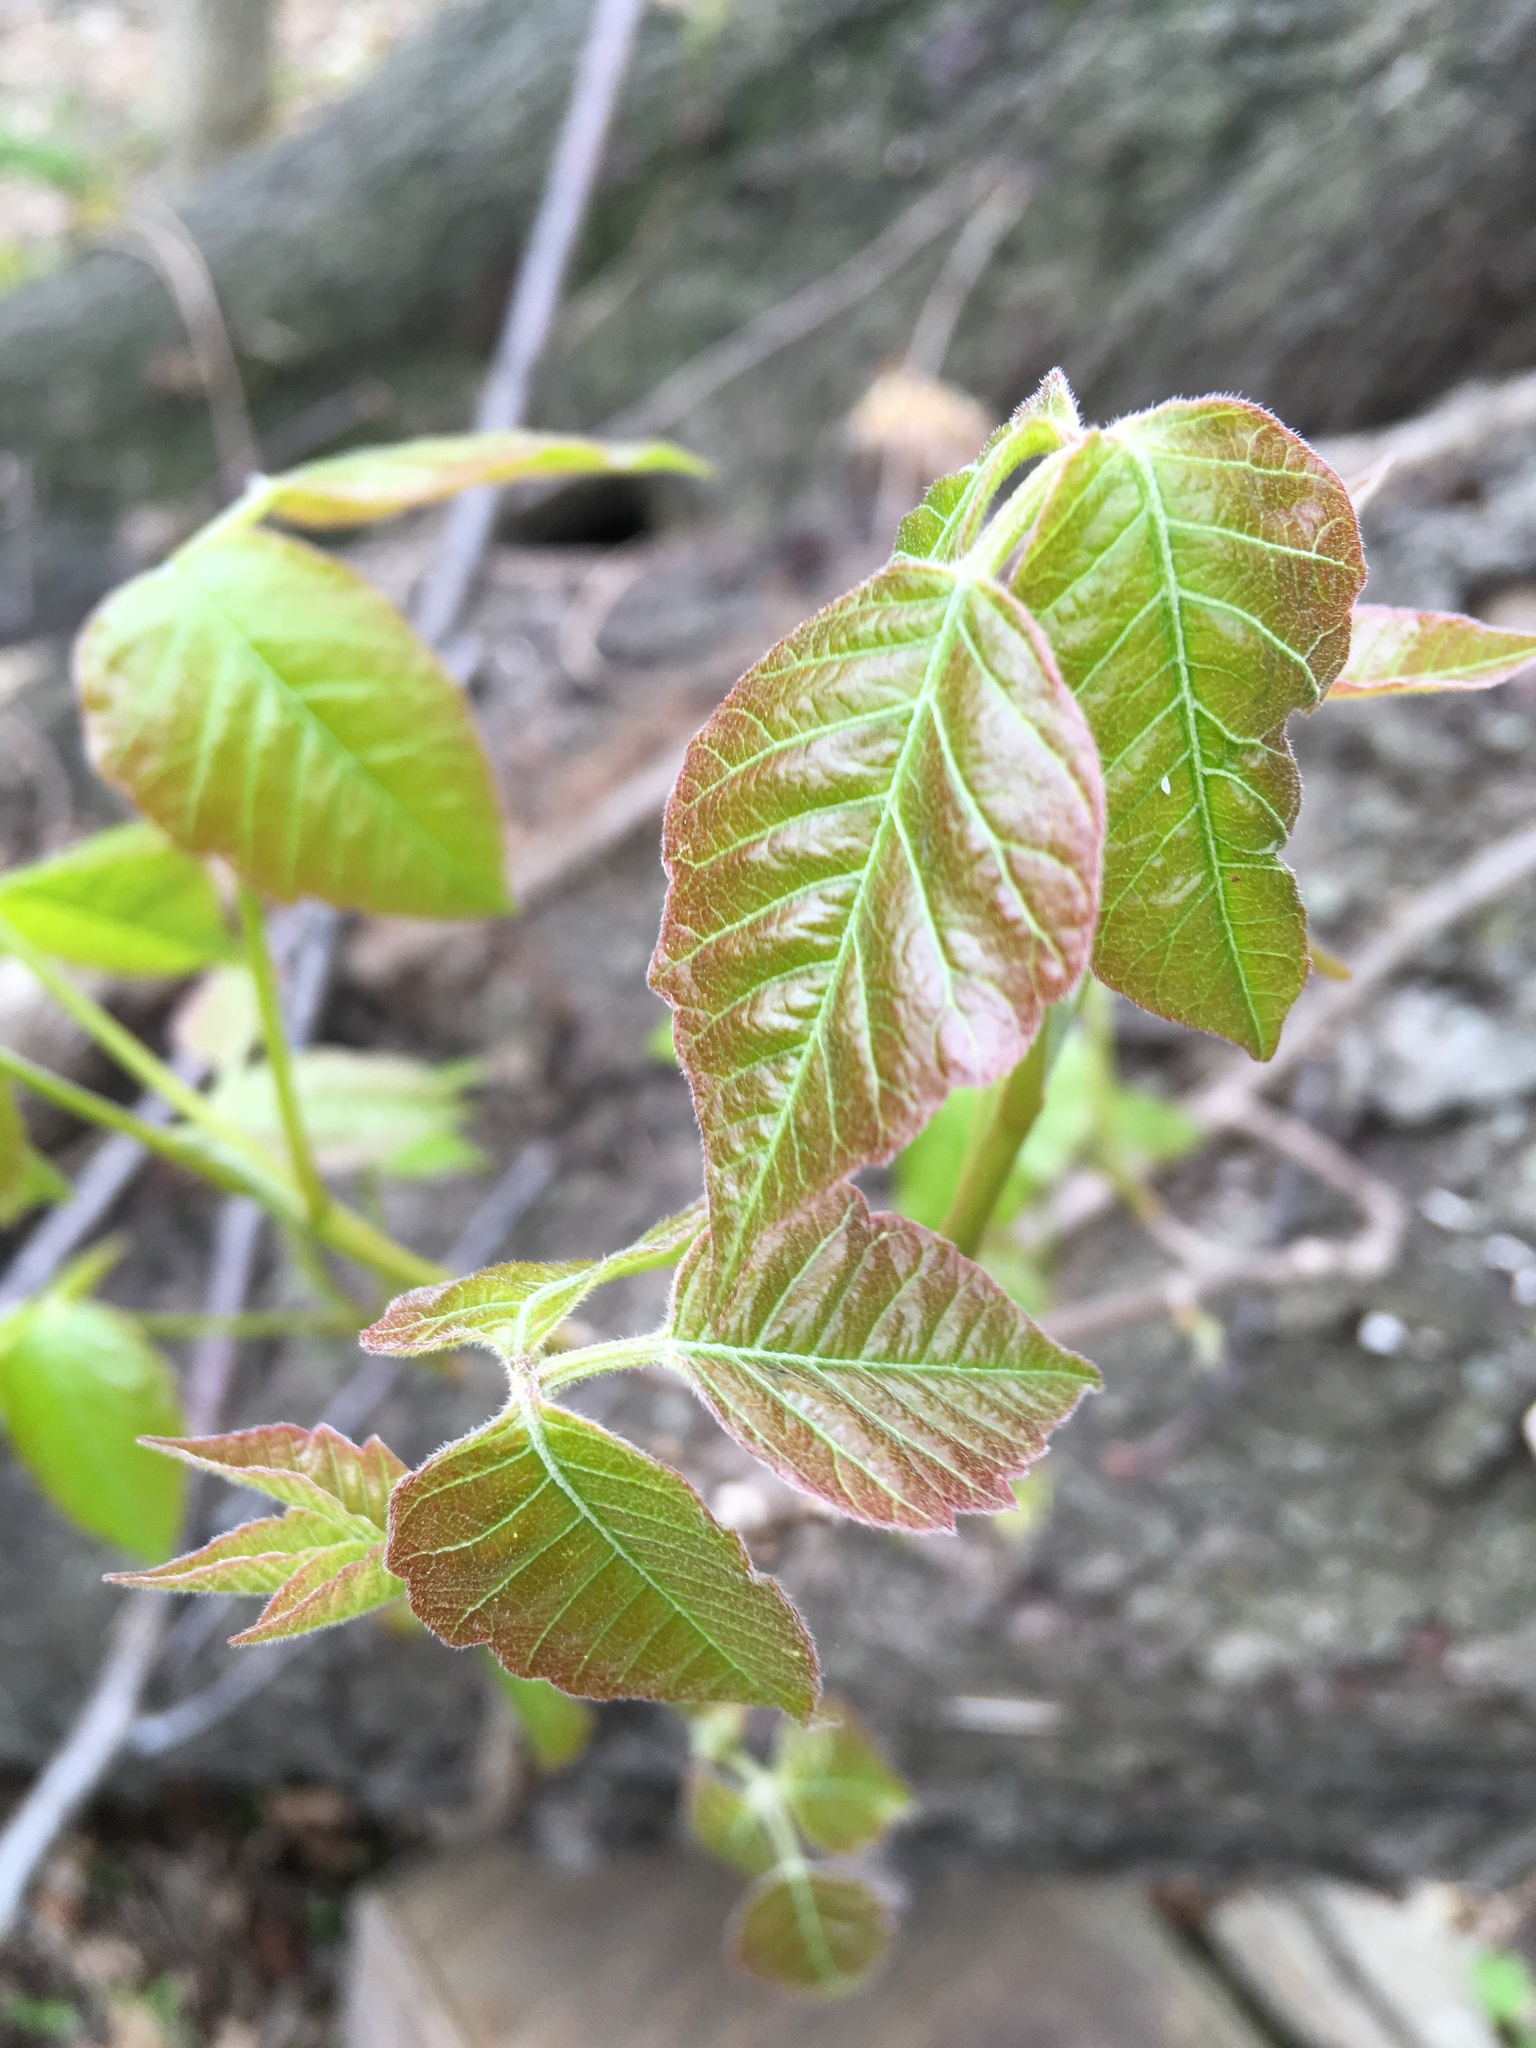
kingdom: Plantae
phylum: Tracheophyta
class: Magnoliopsida
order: Sapindales
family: Anacardiaceae
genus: Toxicodendron
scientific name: Toxicodendron radicans
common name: Poison ivy
